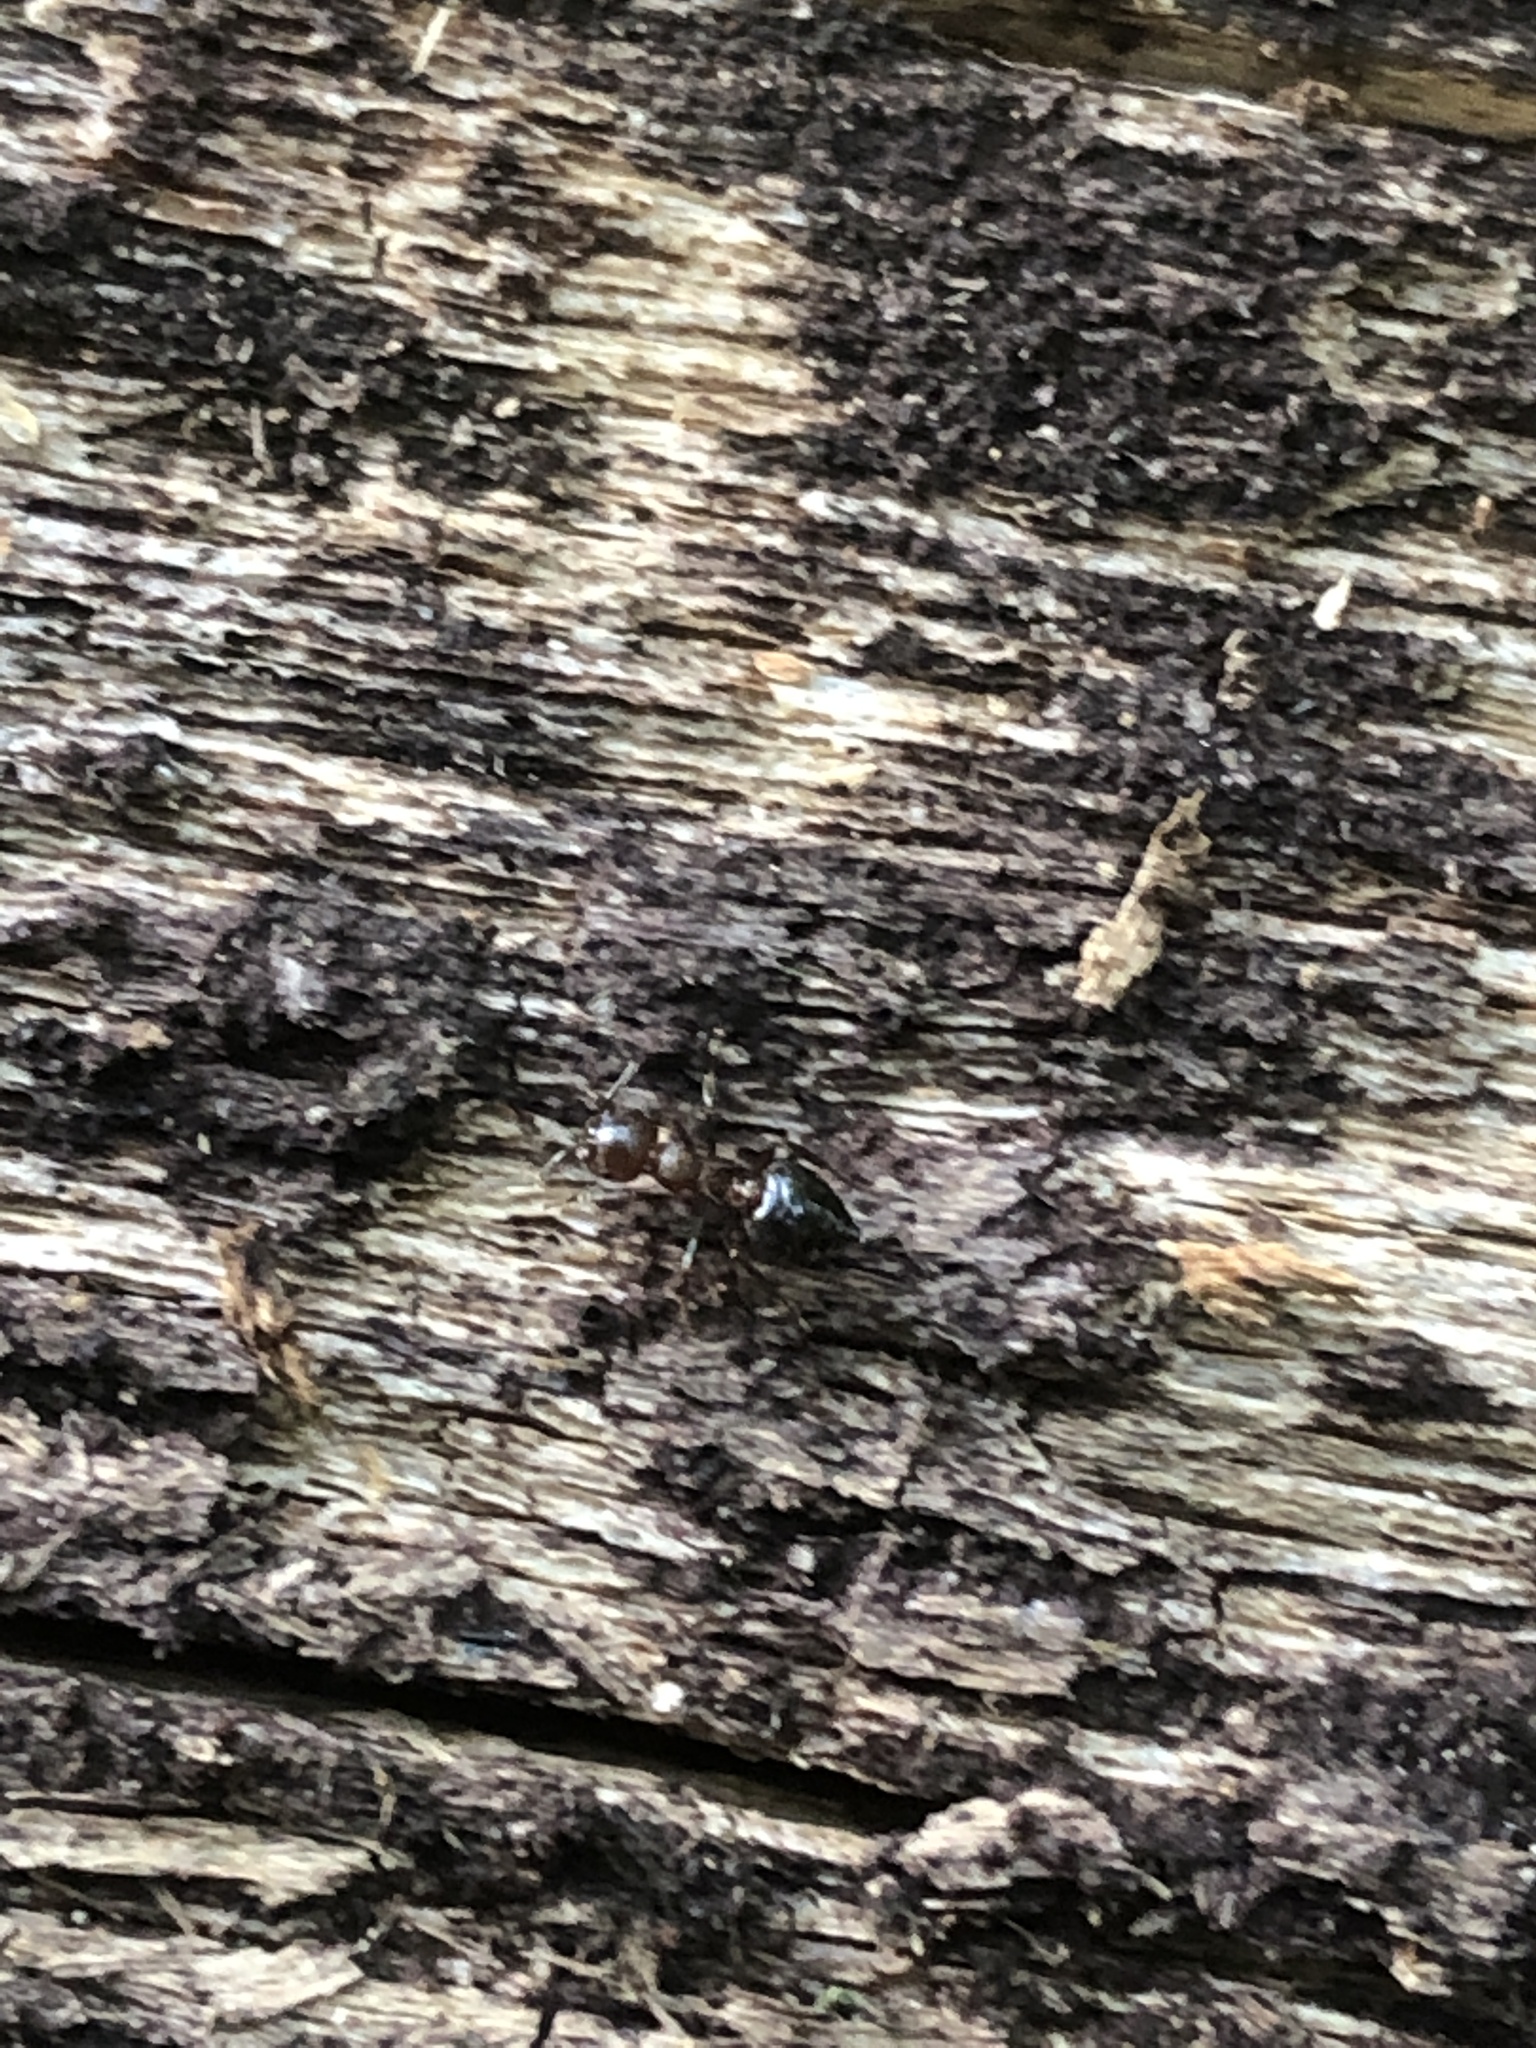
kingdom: Animalia
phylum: Arthropoda
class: Insecta
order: Hymenoptera
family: Formicidae
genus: Crematogaster
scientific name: Crematogaster cerasi
